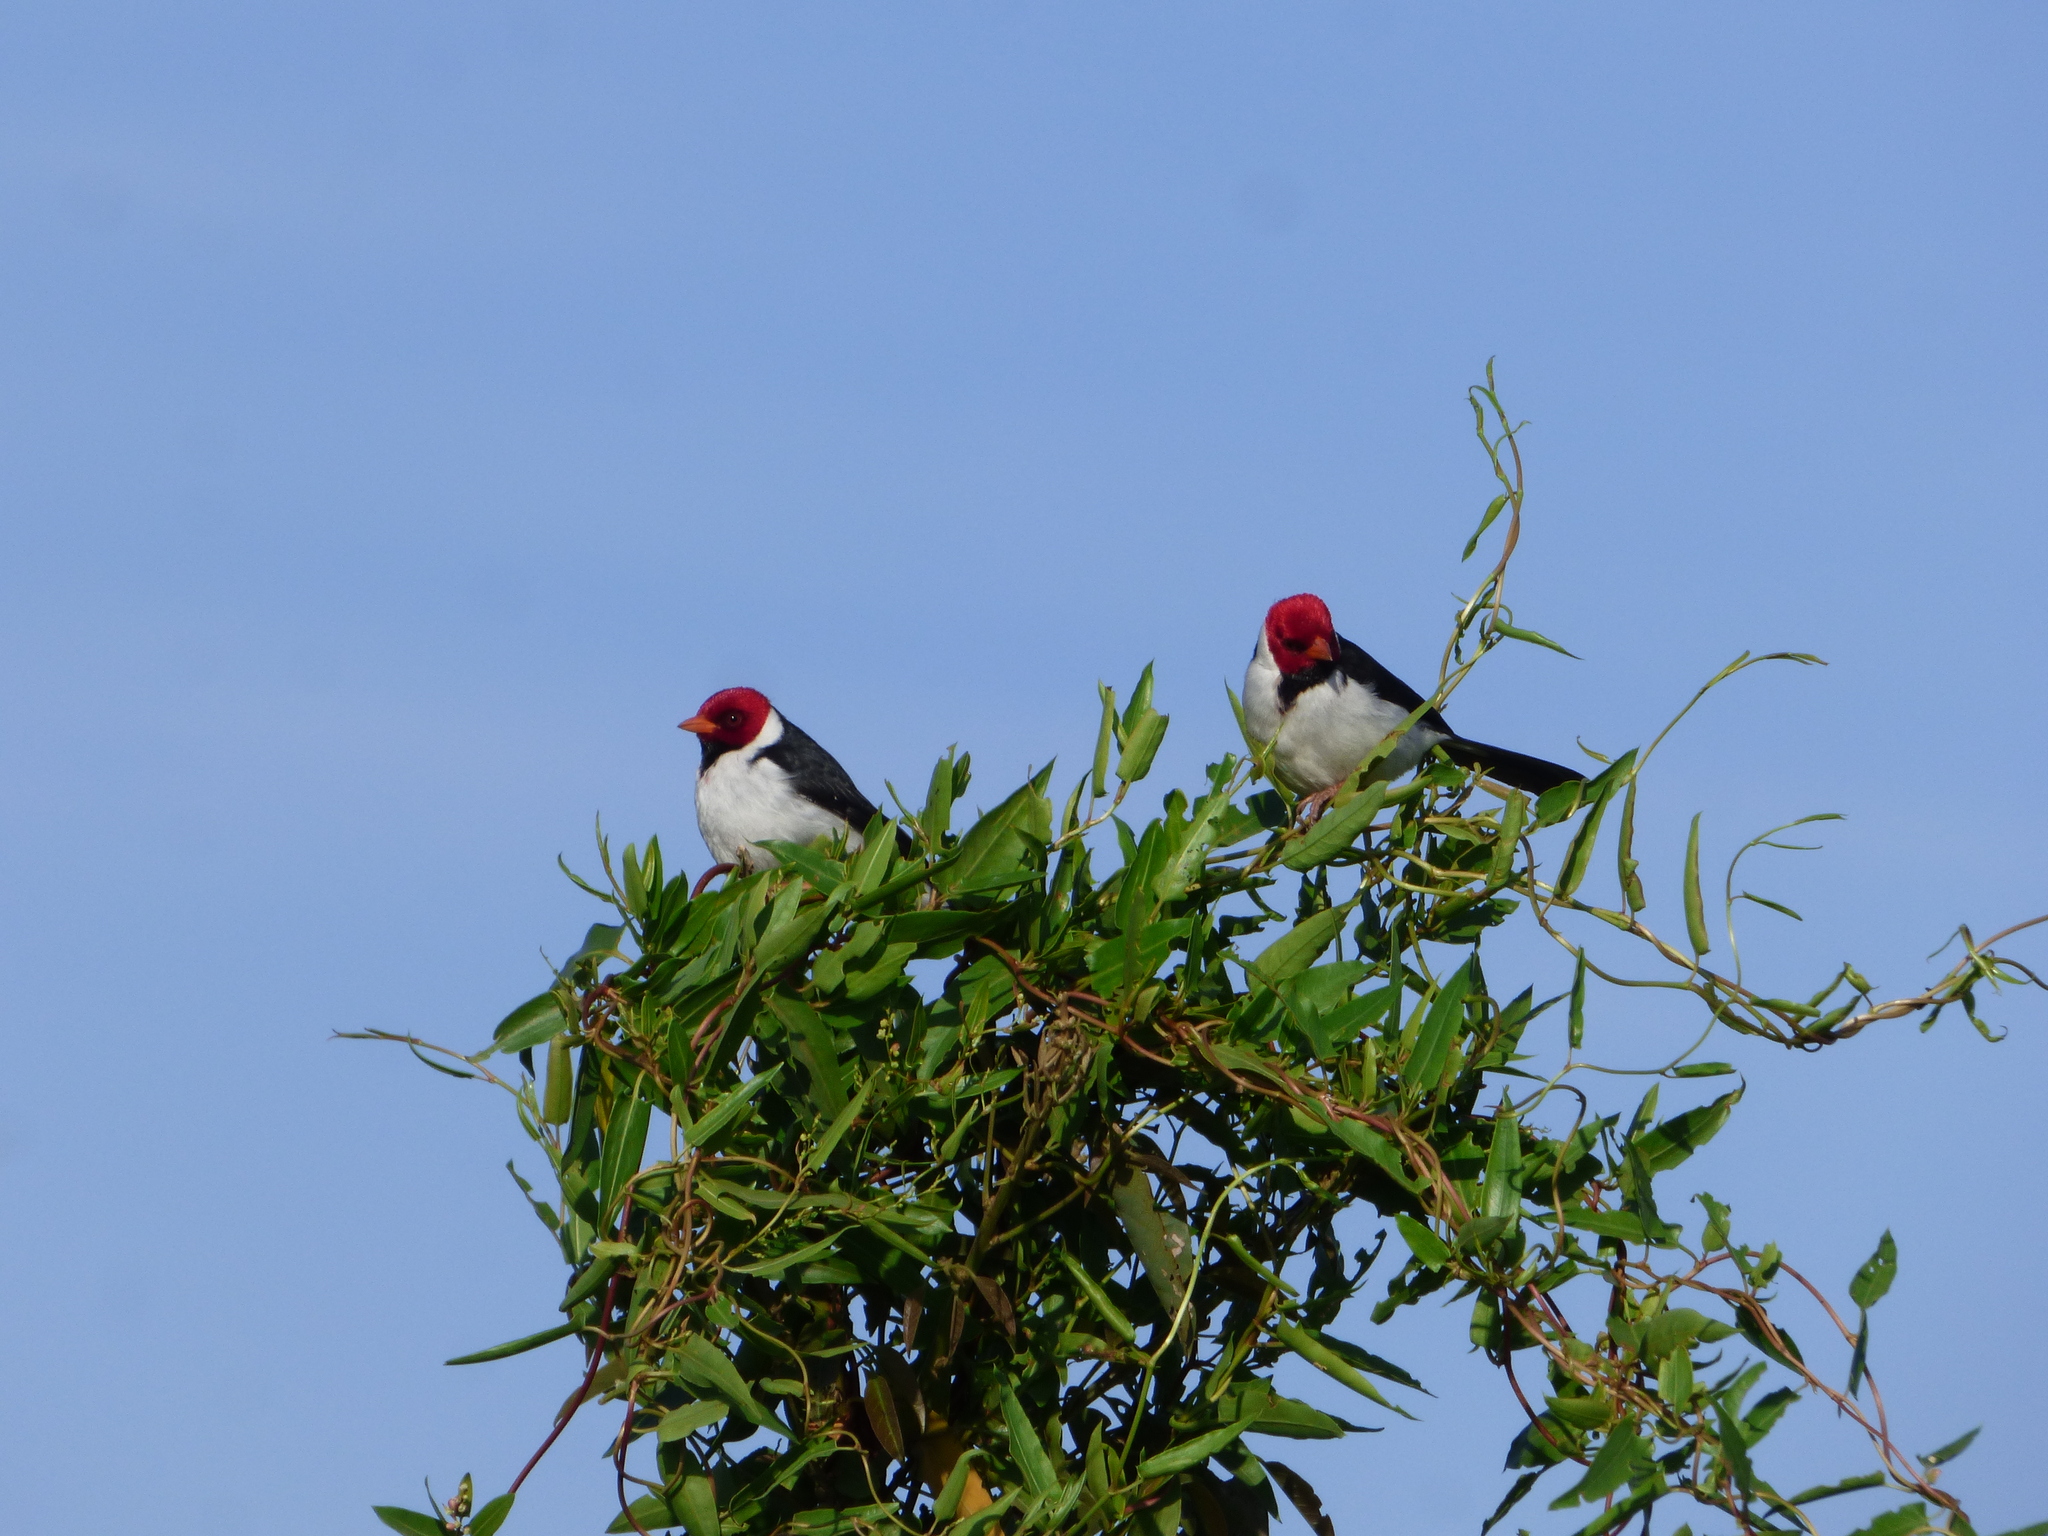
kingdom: Animalia
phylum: Chordata
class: Aves
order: Passeriformes
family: Thraupidae
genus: Paroaria
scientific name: Paroaria capitata
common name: Yellow-billed cardinal
